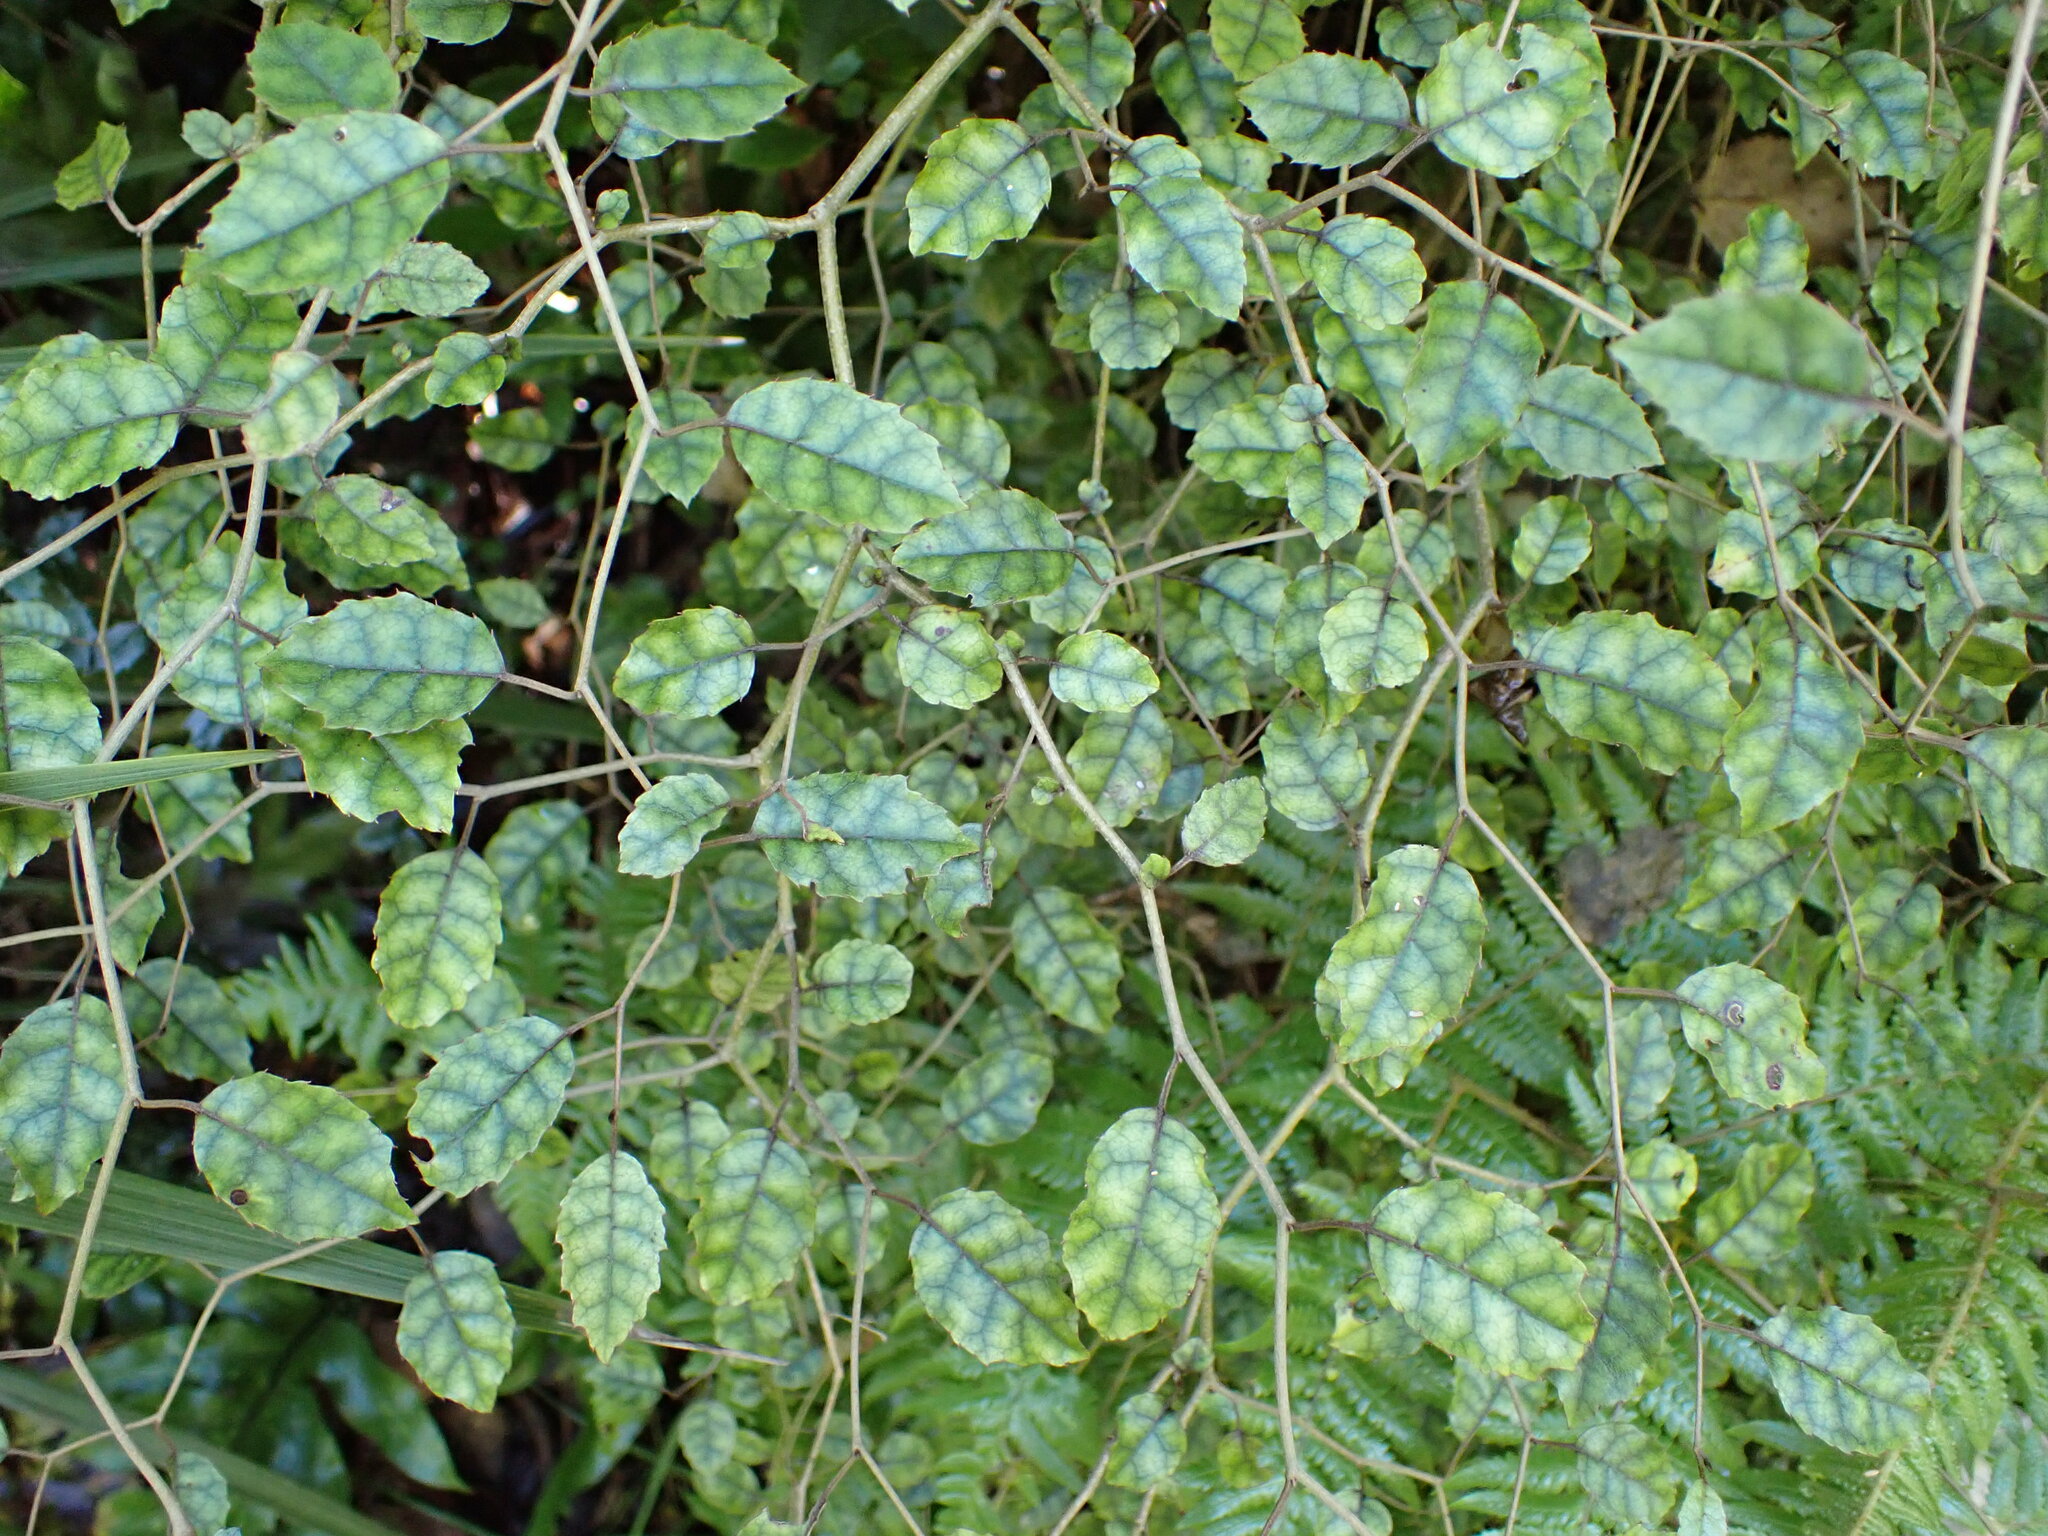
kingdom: Plantae
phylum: Tracheophyta
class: Magnoliopsida
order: Asterales
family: Rousseaceae
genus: Carpodetus
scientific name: Carpodetus serratus
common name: White mapau
